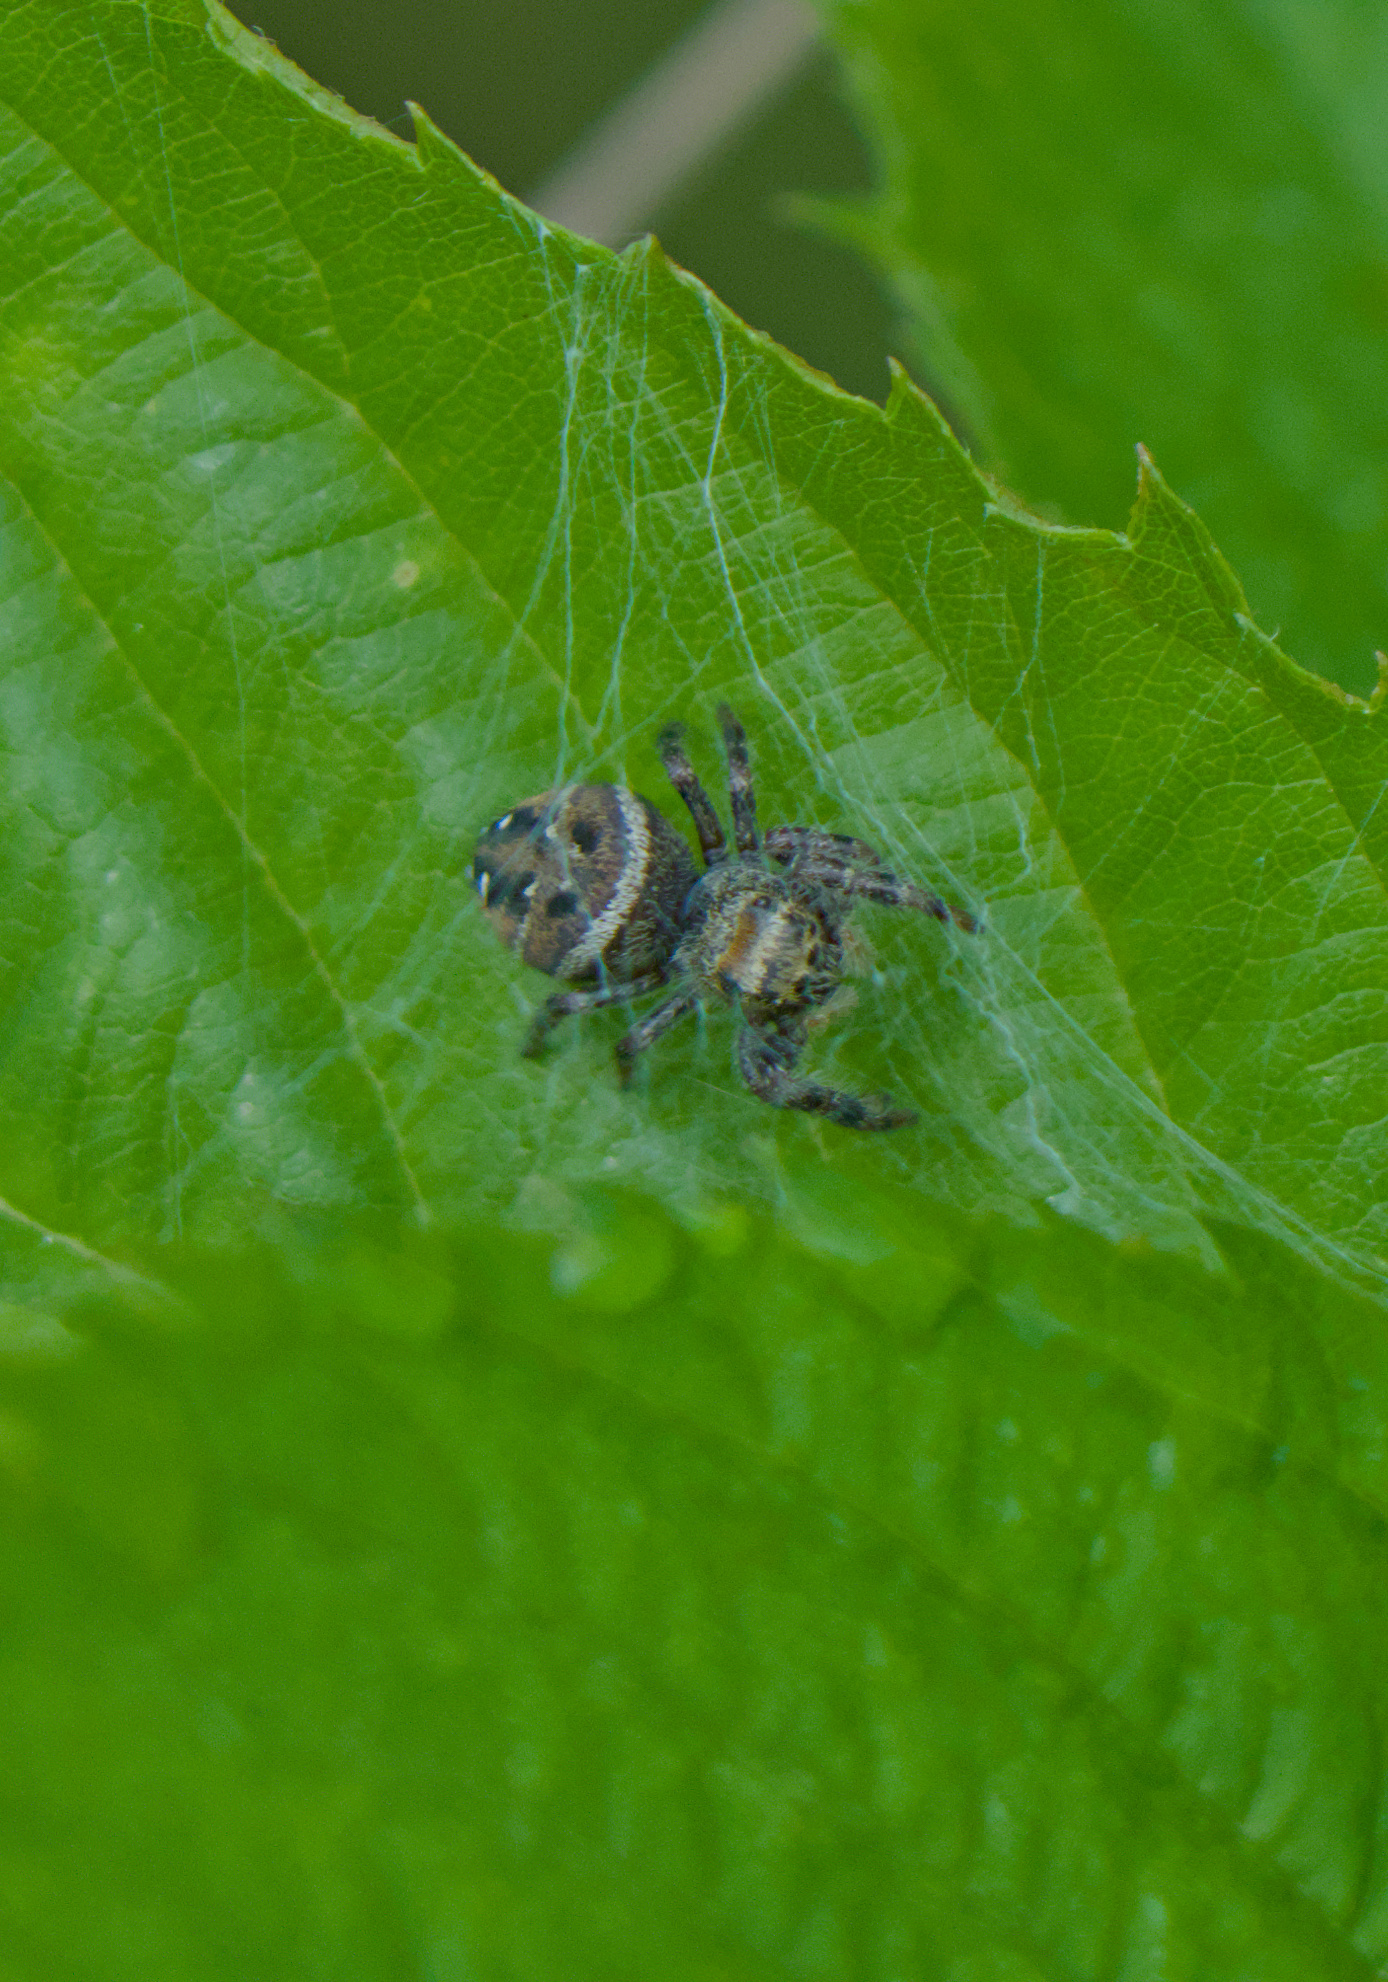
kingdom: Animalia
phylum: Arthropoda
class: Arachnida
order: Araneae
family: Salticidae
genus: Phidippus
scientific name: Phidippus clarus
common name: Brilliant jumping spider
